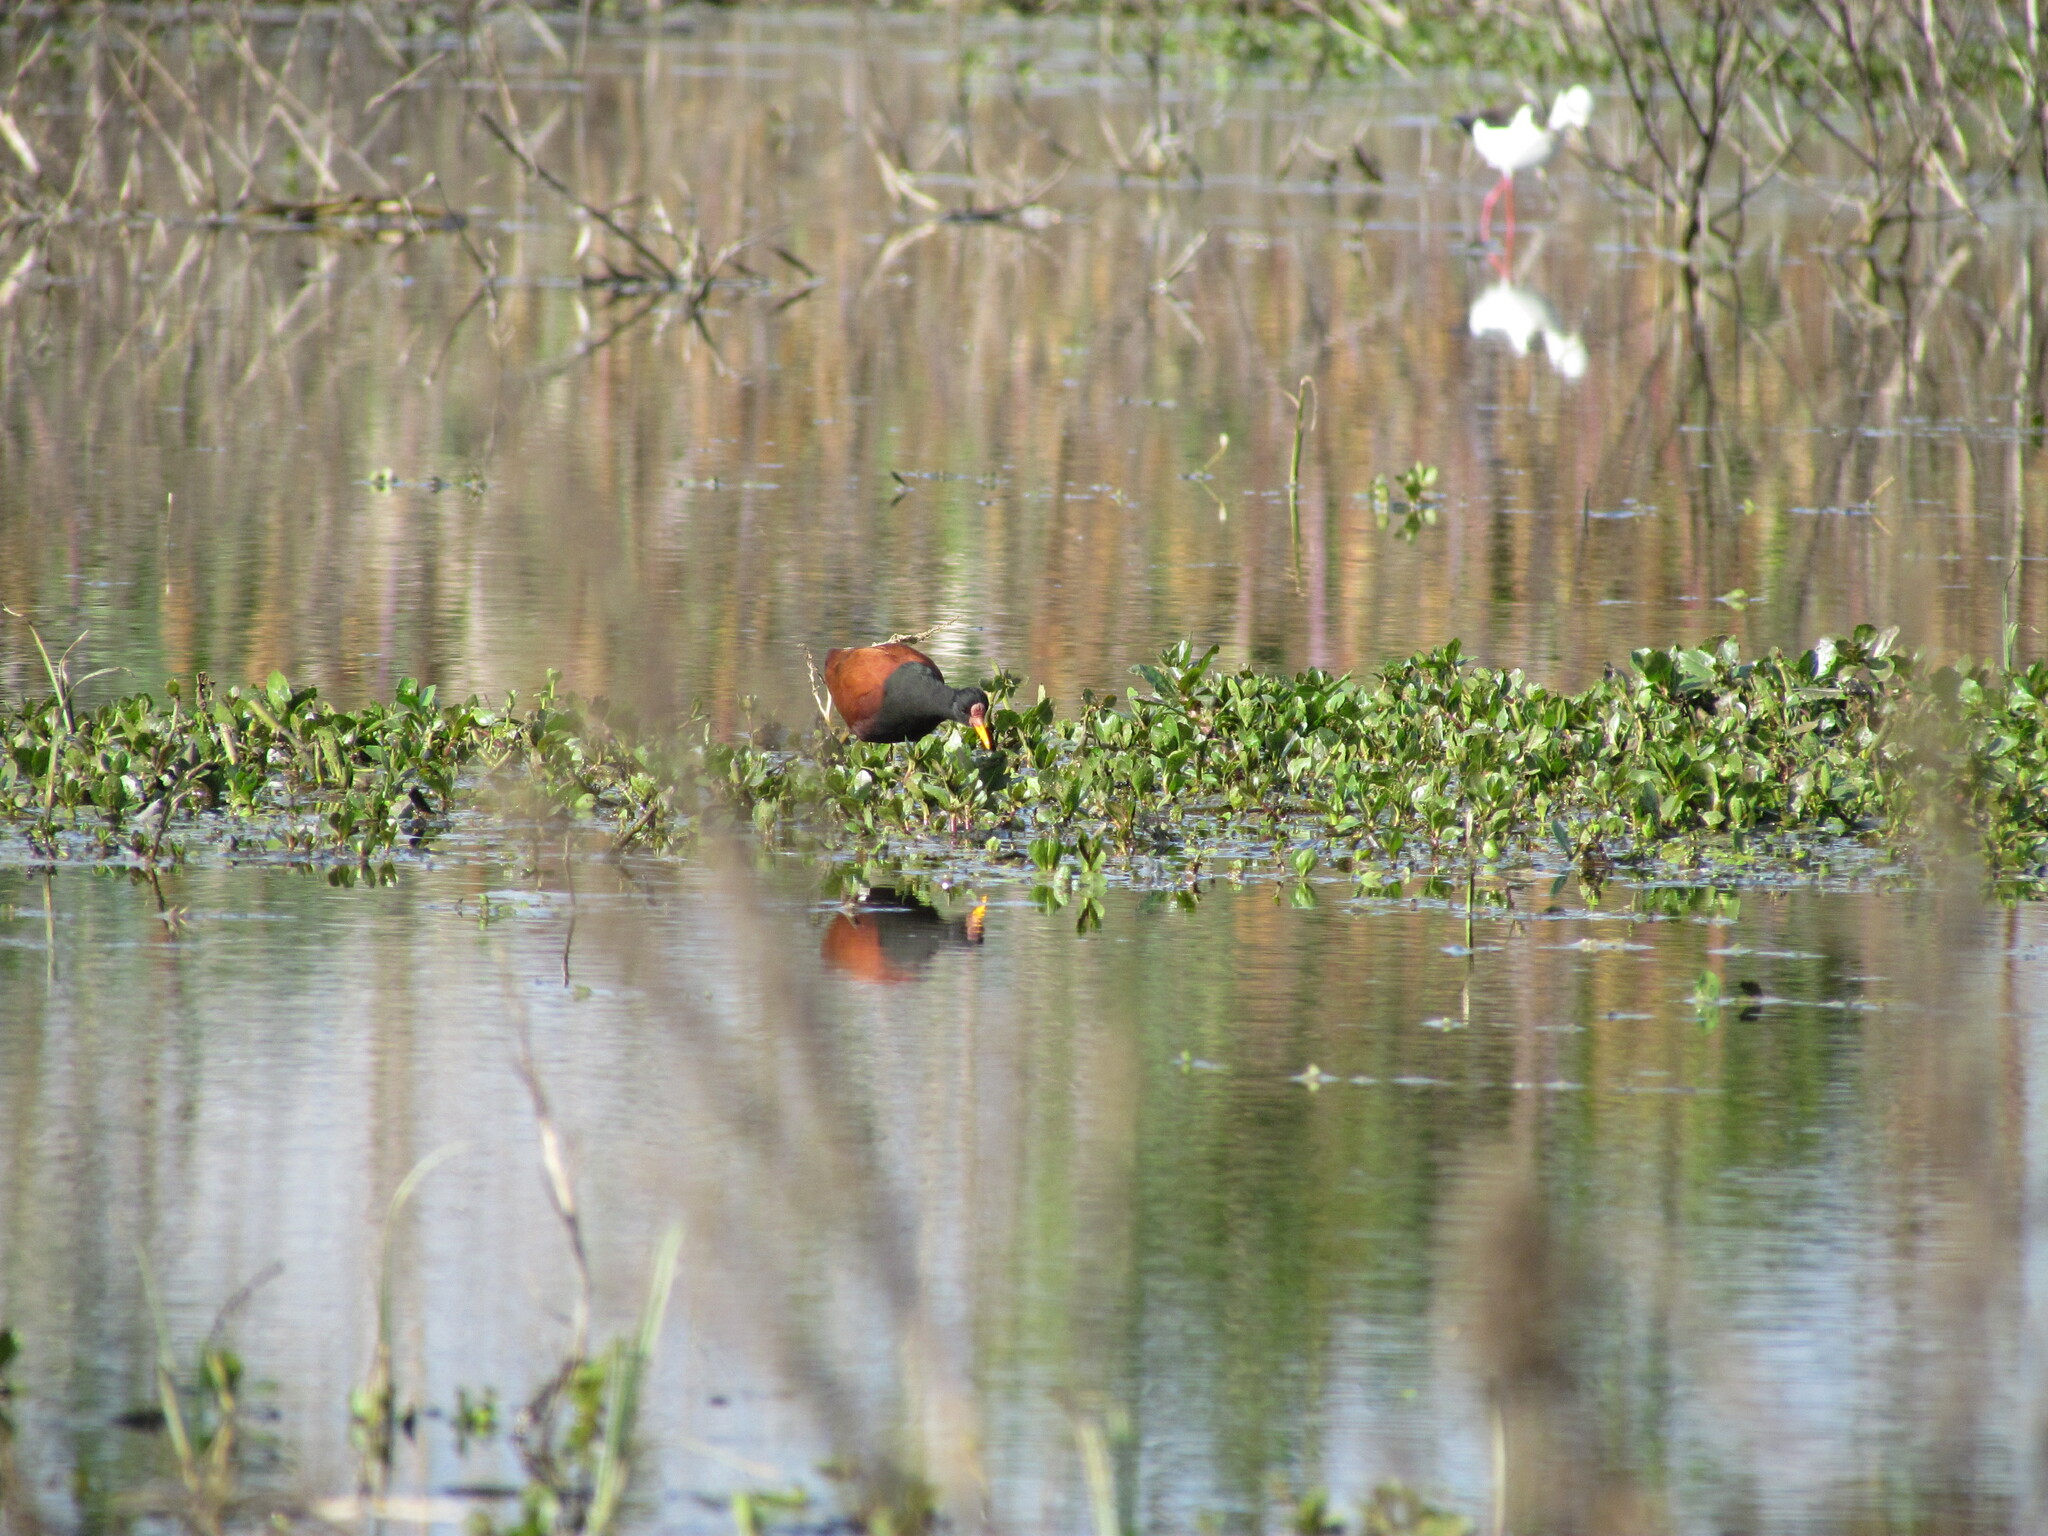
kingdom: Animalia
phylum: Chordata
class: Aves
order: Charadriiformes
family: Jacanidae
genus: Jacana
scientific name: Jacana jacana
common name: Wattled jacana
